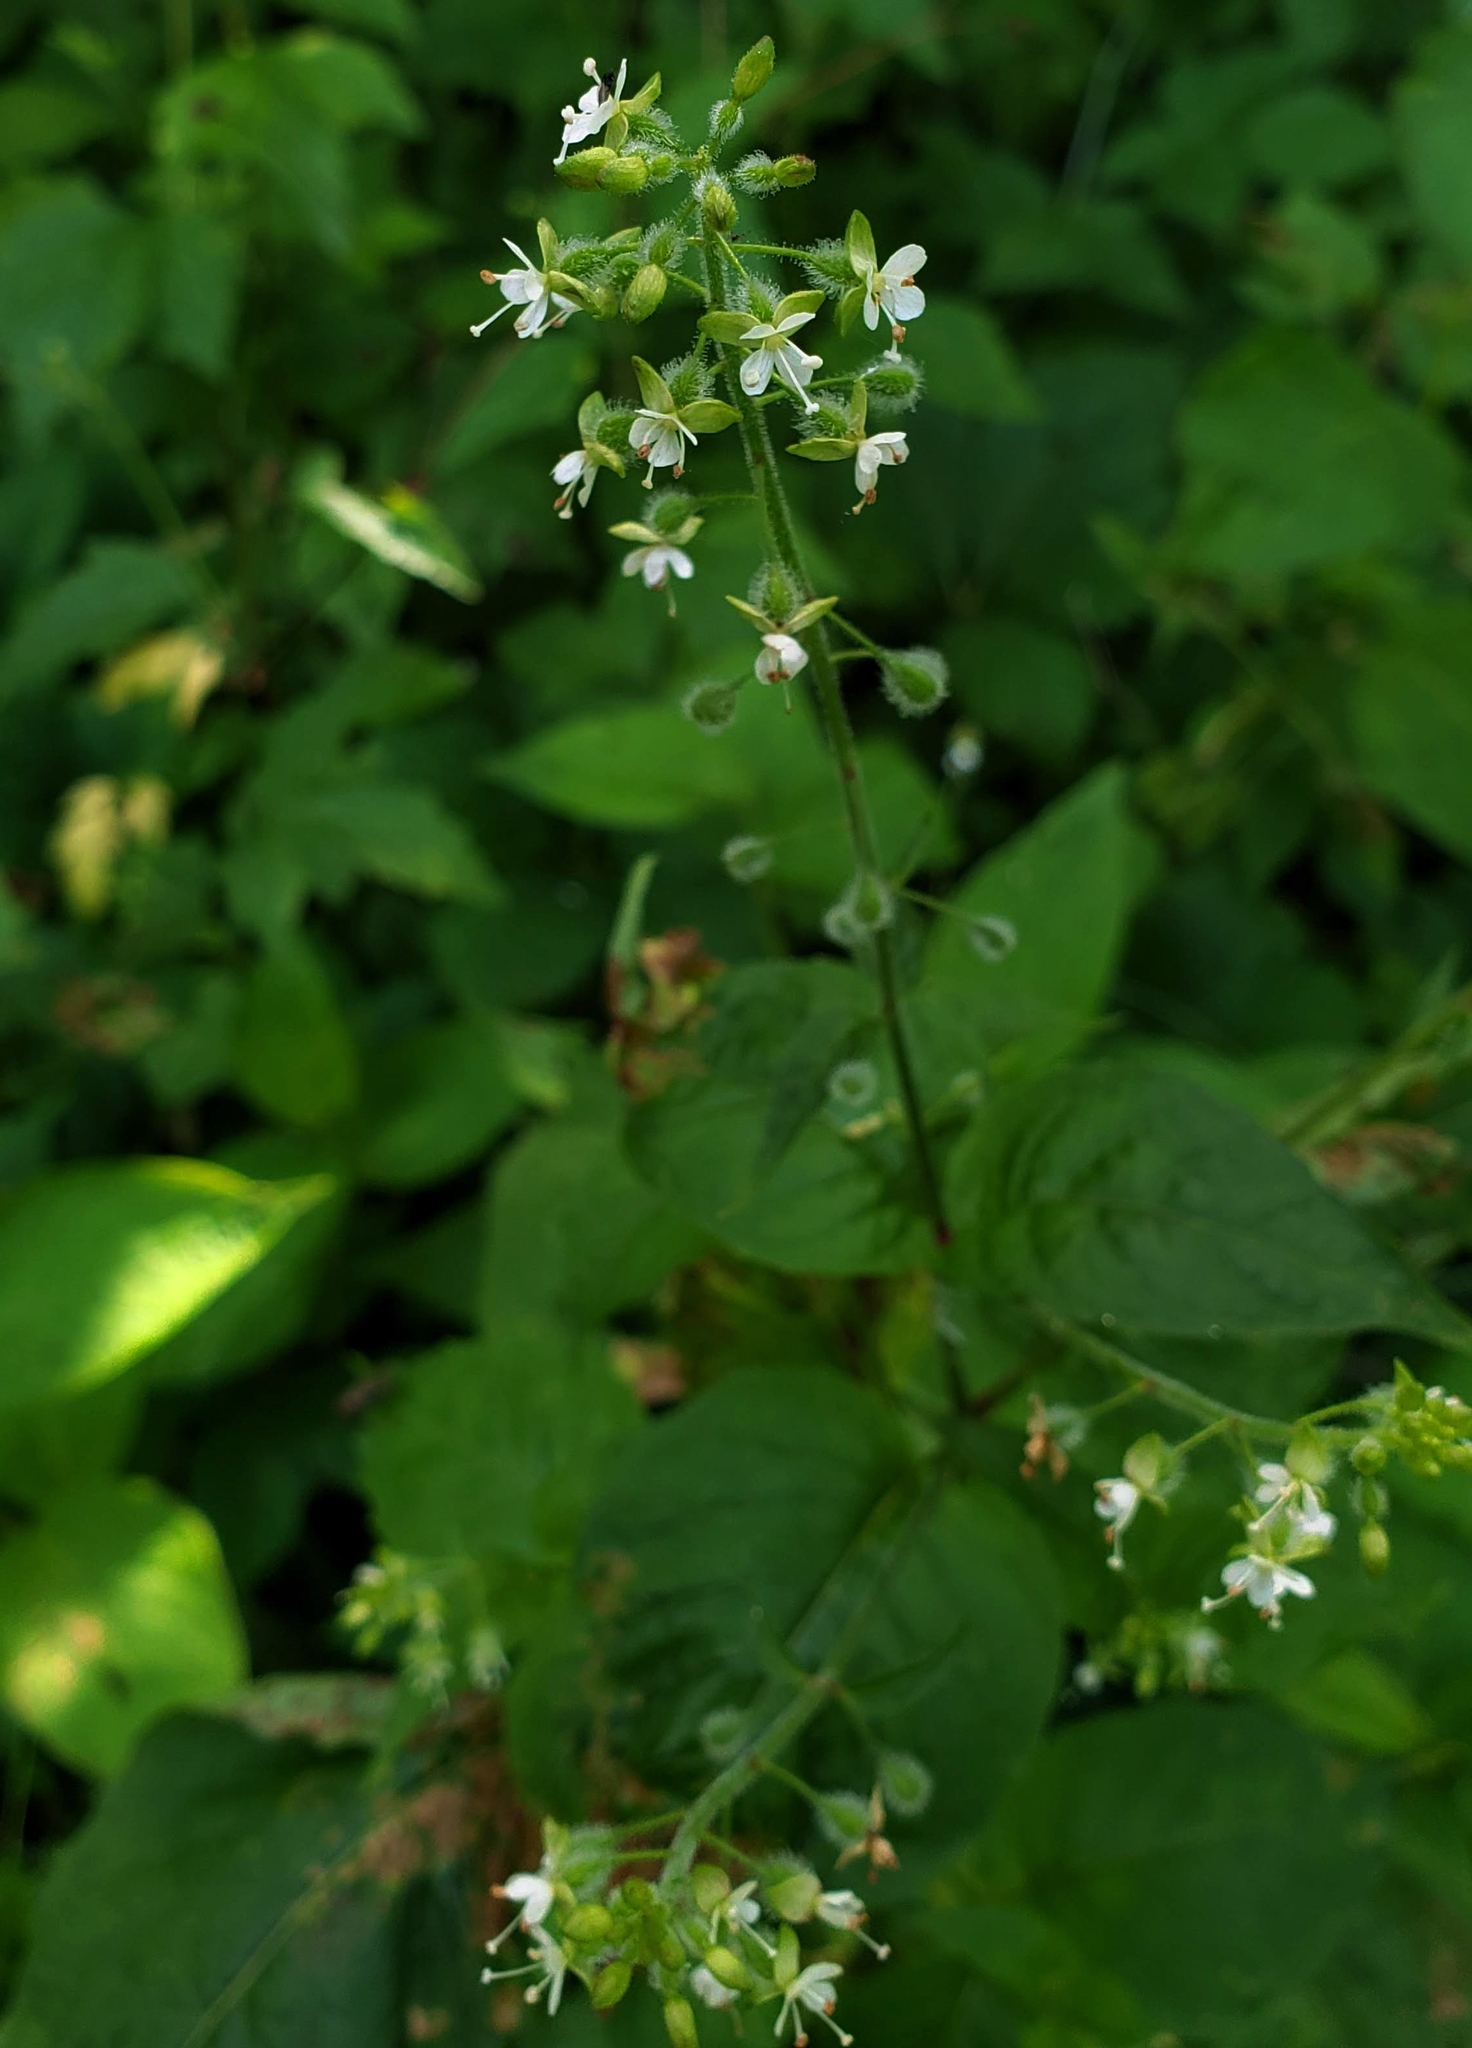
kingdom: Plantae
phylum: Tracheophyta
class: Magnoliopsida
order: Myrtales
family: Onagraceae
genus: Circaea
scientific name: Circaea canadensis
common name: Broad-leaved enchanter's nightshade
